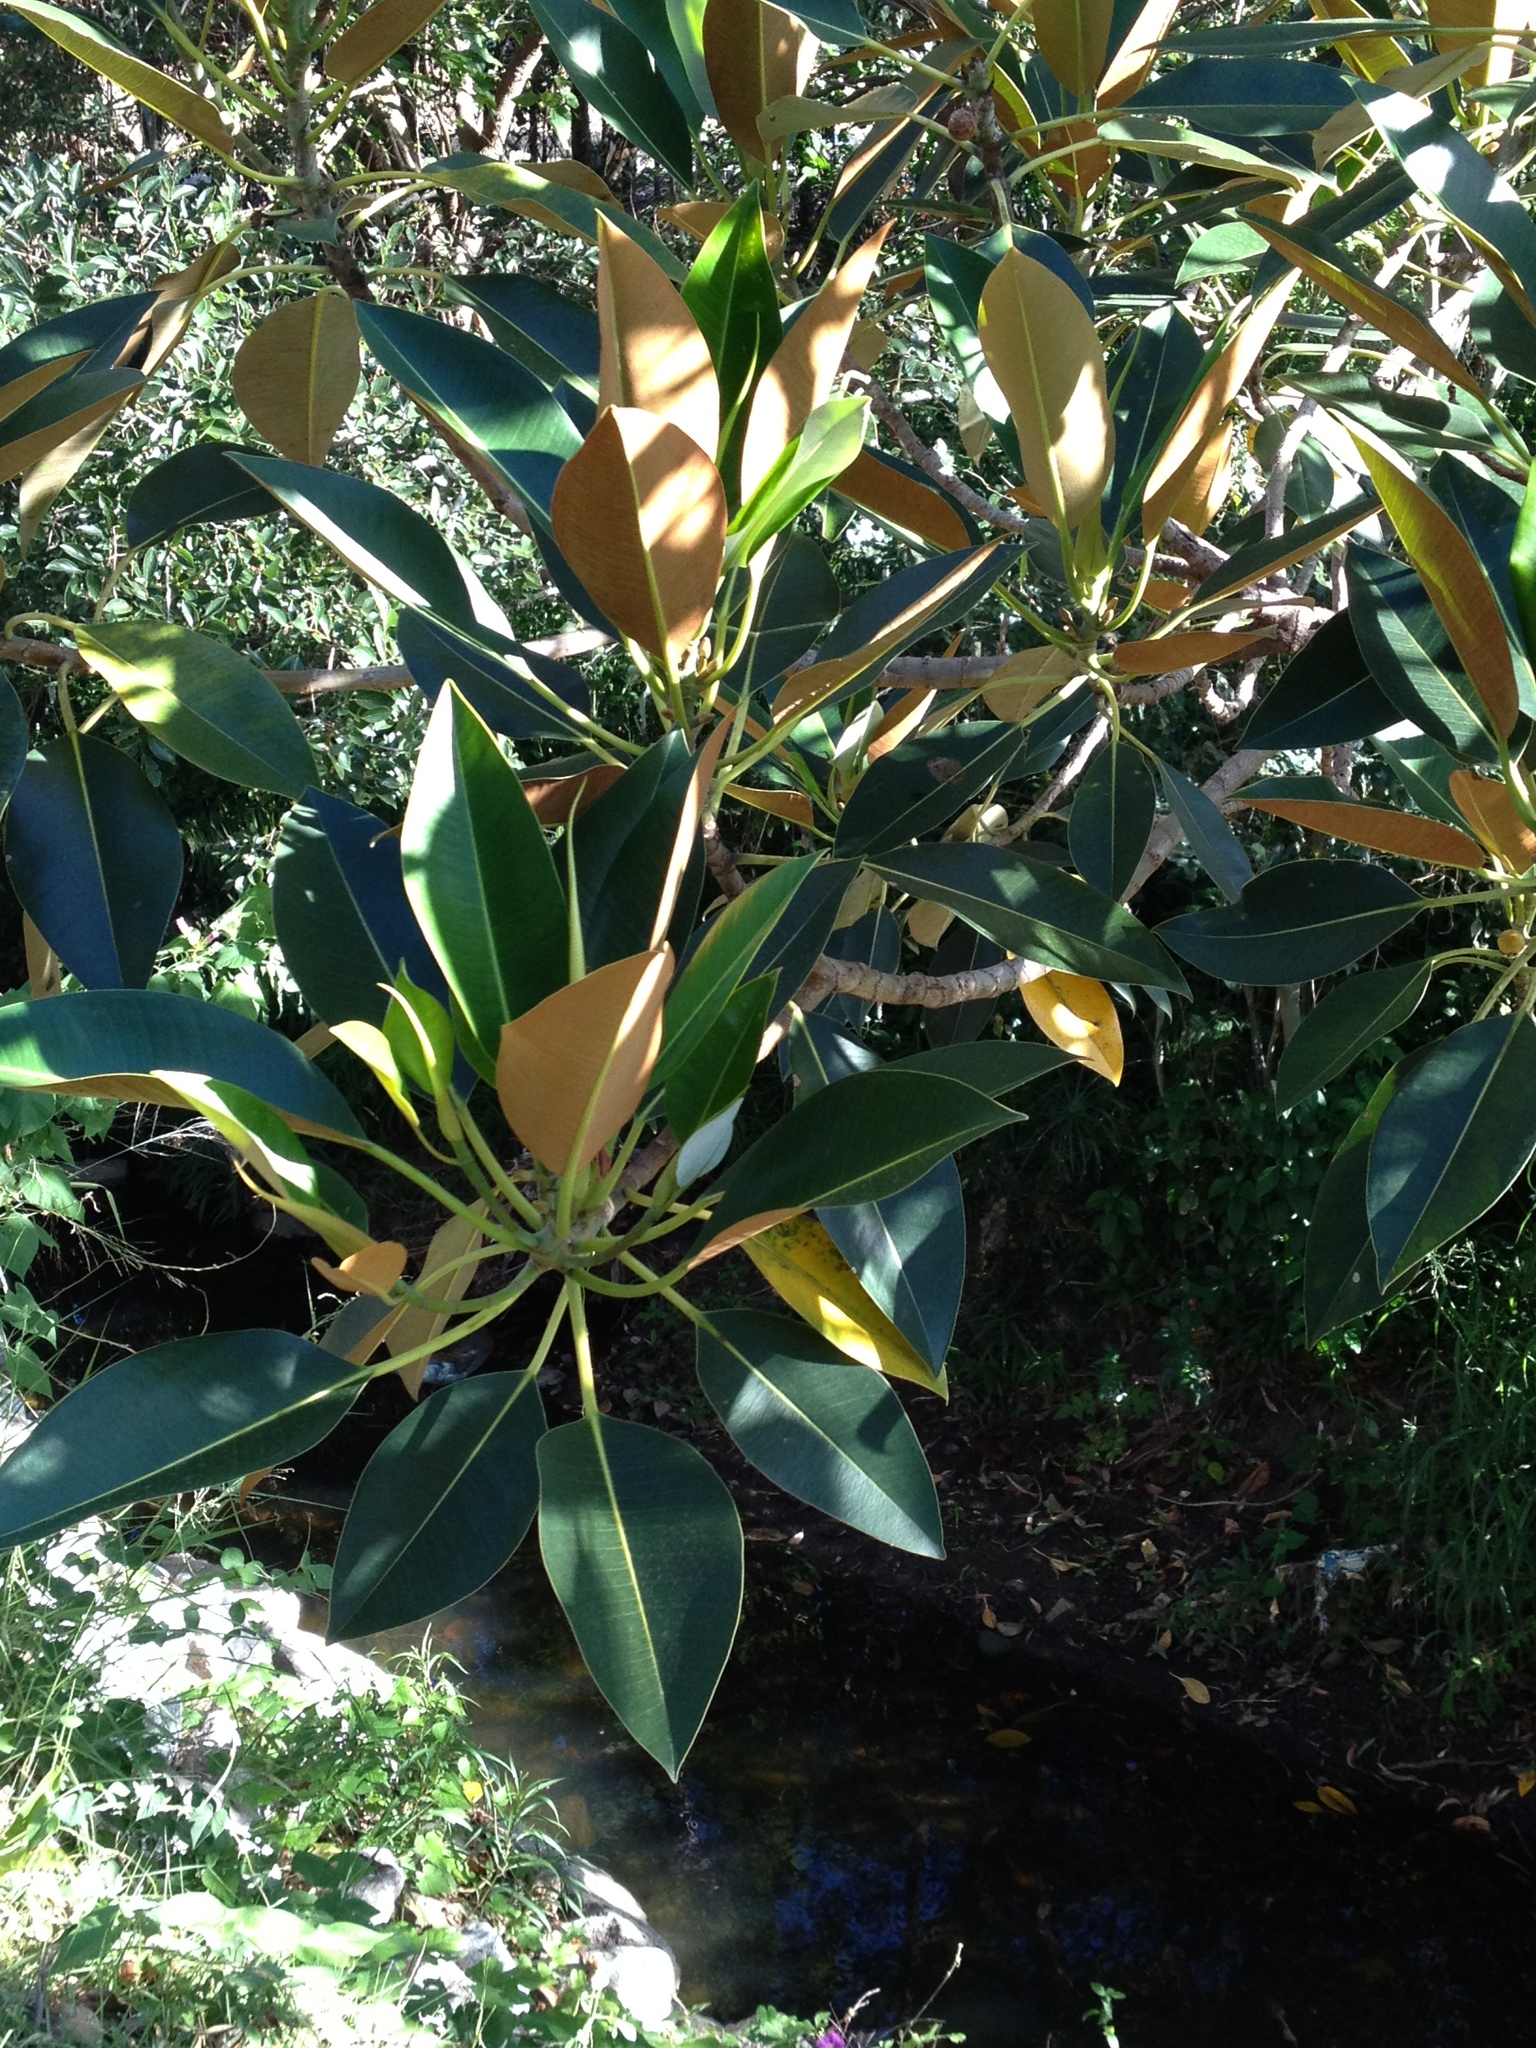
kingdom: Plantae
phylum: Tracheophyta
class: Magnoliopsida
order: Rosales
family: Moraceae
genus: Ficus
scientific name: Ficus macrophylla
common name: Moreton bay fig
